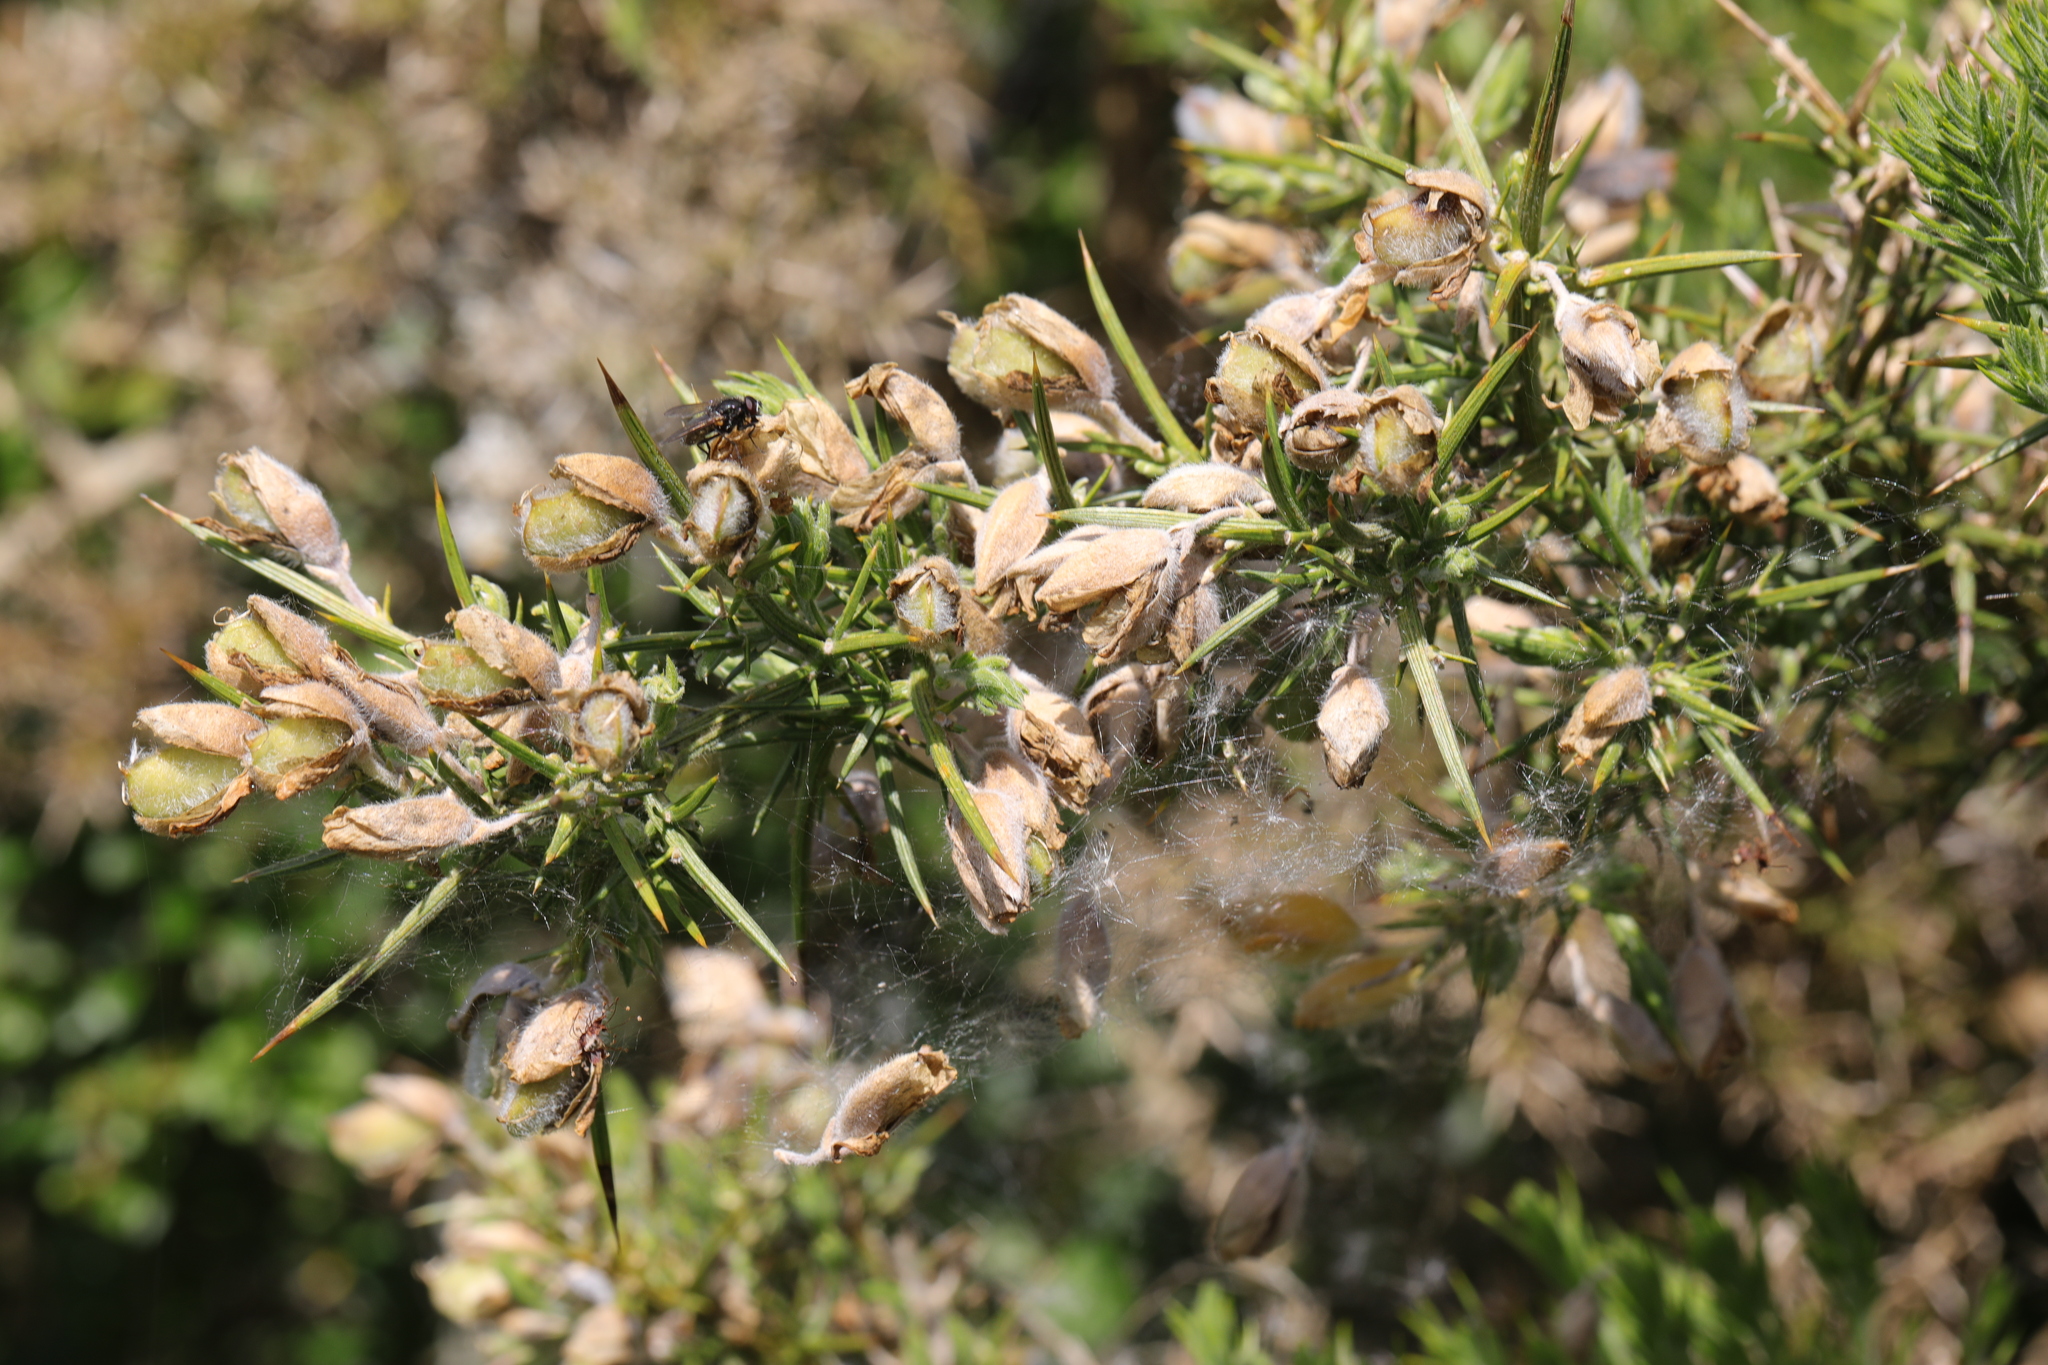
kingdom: Plantae
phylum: Tracheophyta
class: Magnoliopsida
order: Fabales
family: Fabaceae
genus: Ulex
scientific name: Ulex europaeus
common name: Common gorse
